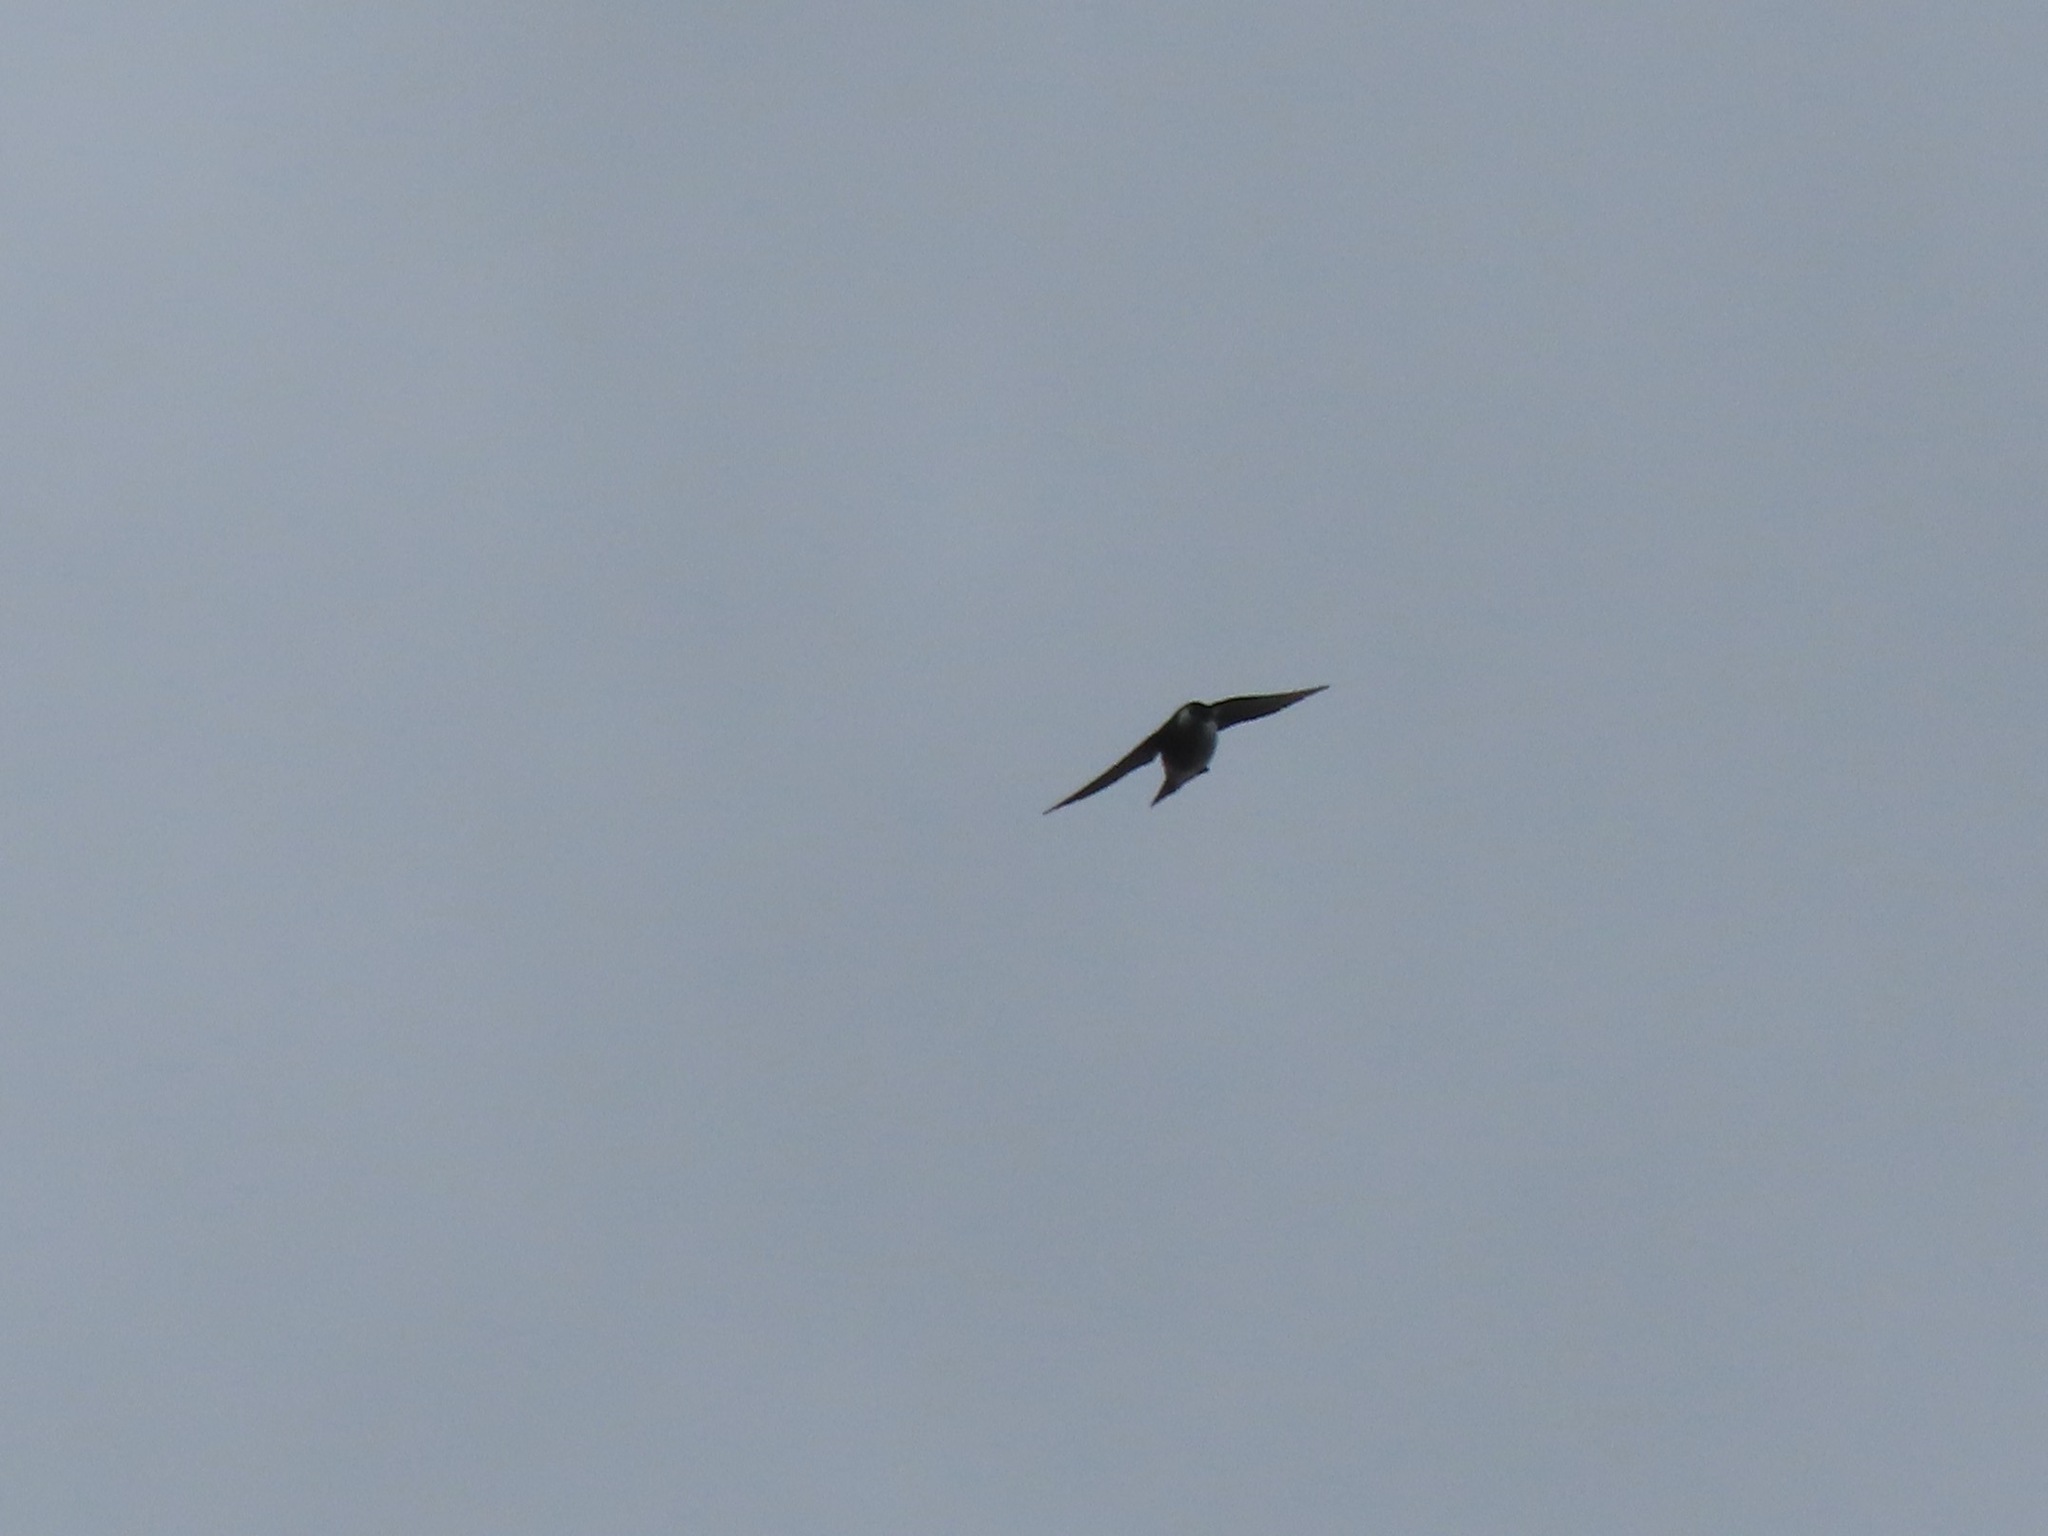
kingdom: Animalia
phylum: Chordata
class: Aves
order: Passeriformes
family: Hirundinidae
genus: Tachycineta
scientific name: Tachycineta thalassina
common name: Violet-green swallow
